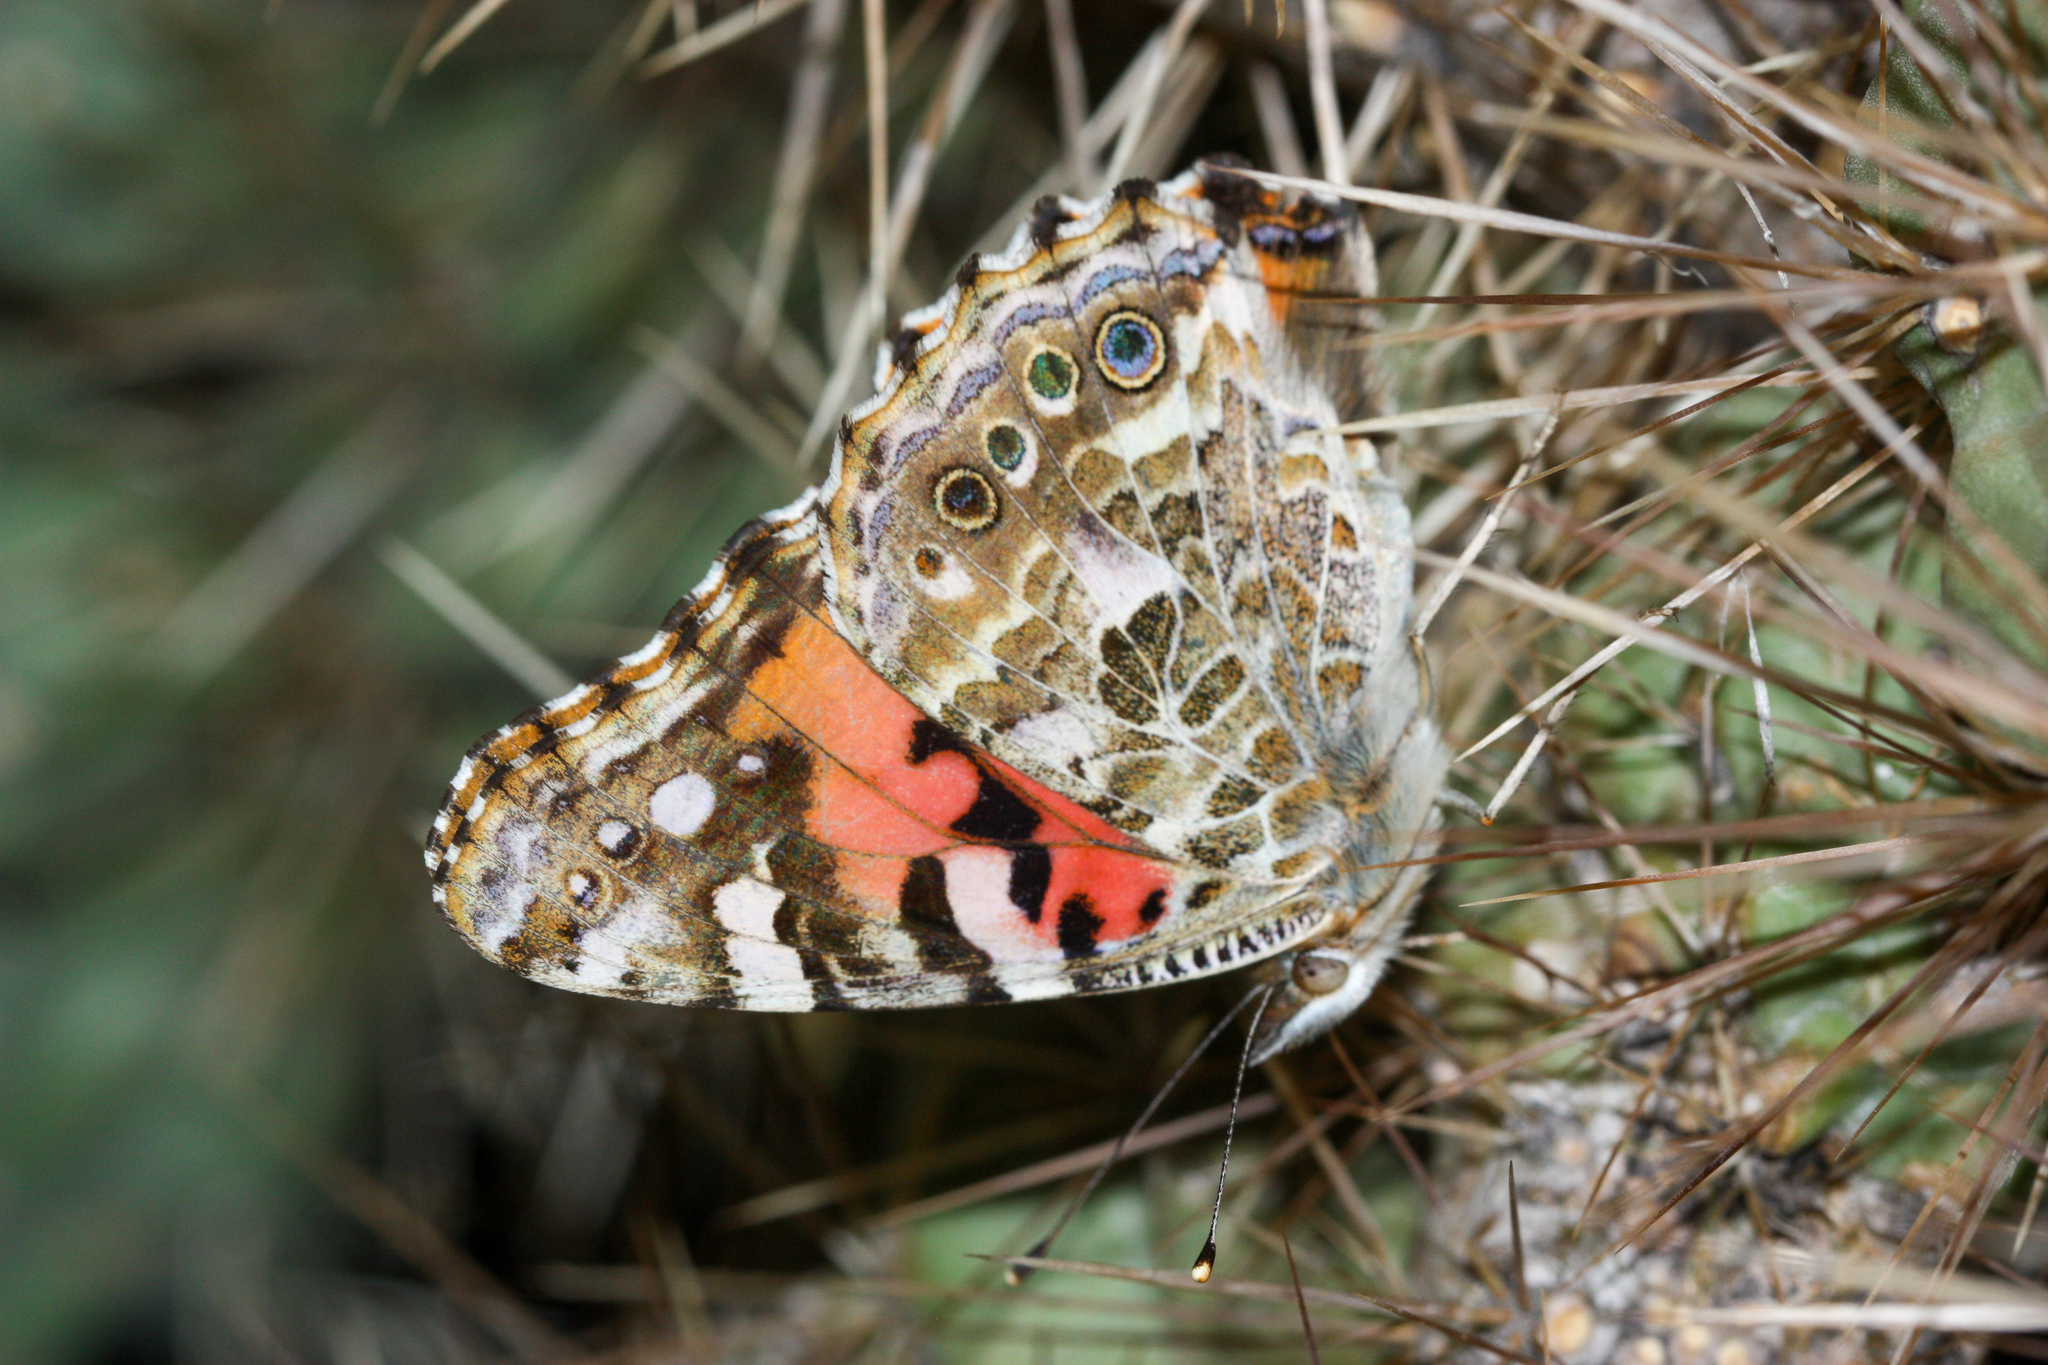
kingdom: Animalia
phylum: Arthropoda
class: Insecta
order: Lepidoptera
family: Nymphalidae
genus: Vanessa
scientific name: Vanessa cardui
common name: Painted lady
